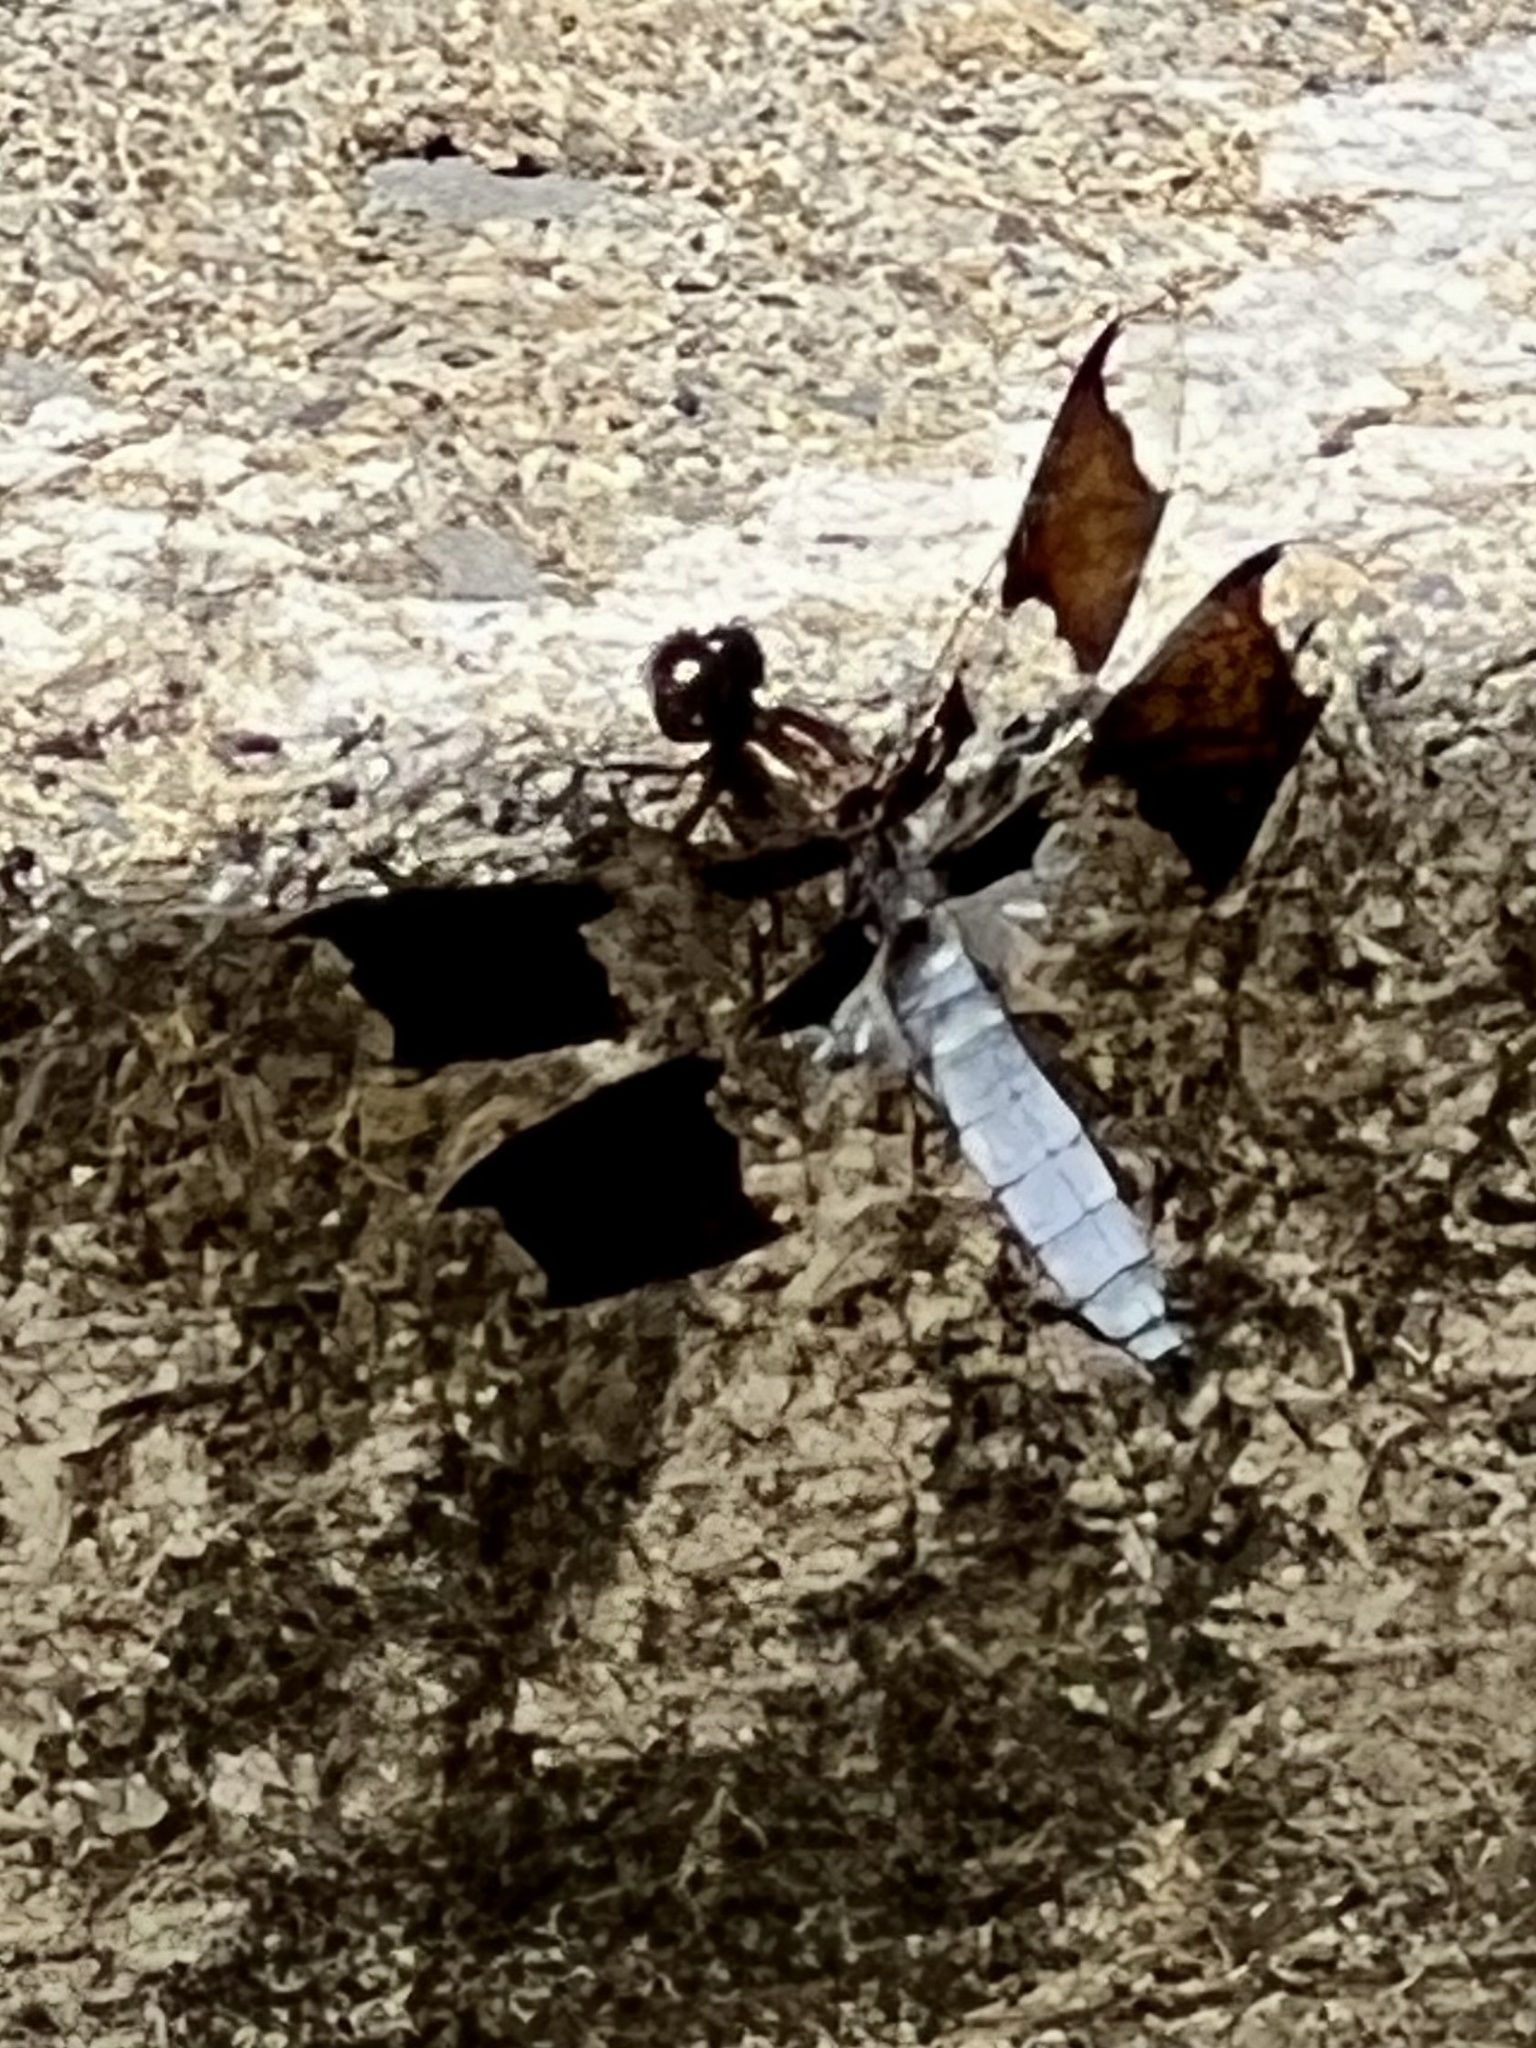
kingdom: Animalia
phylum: Arthropoda
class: Insecta
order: Odonata
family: Libellulidae
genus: Plathemis
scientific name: Plathemis lydia
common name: Common whitetail
